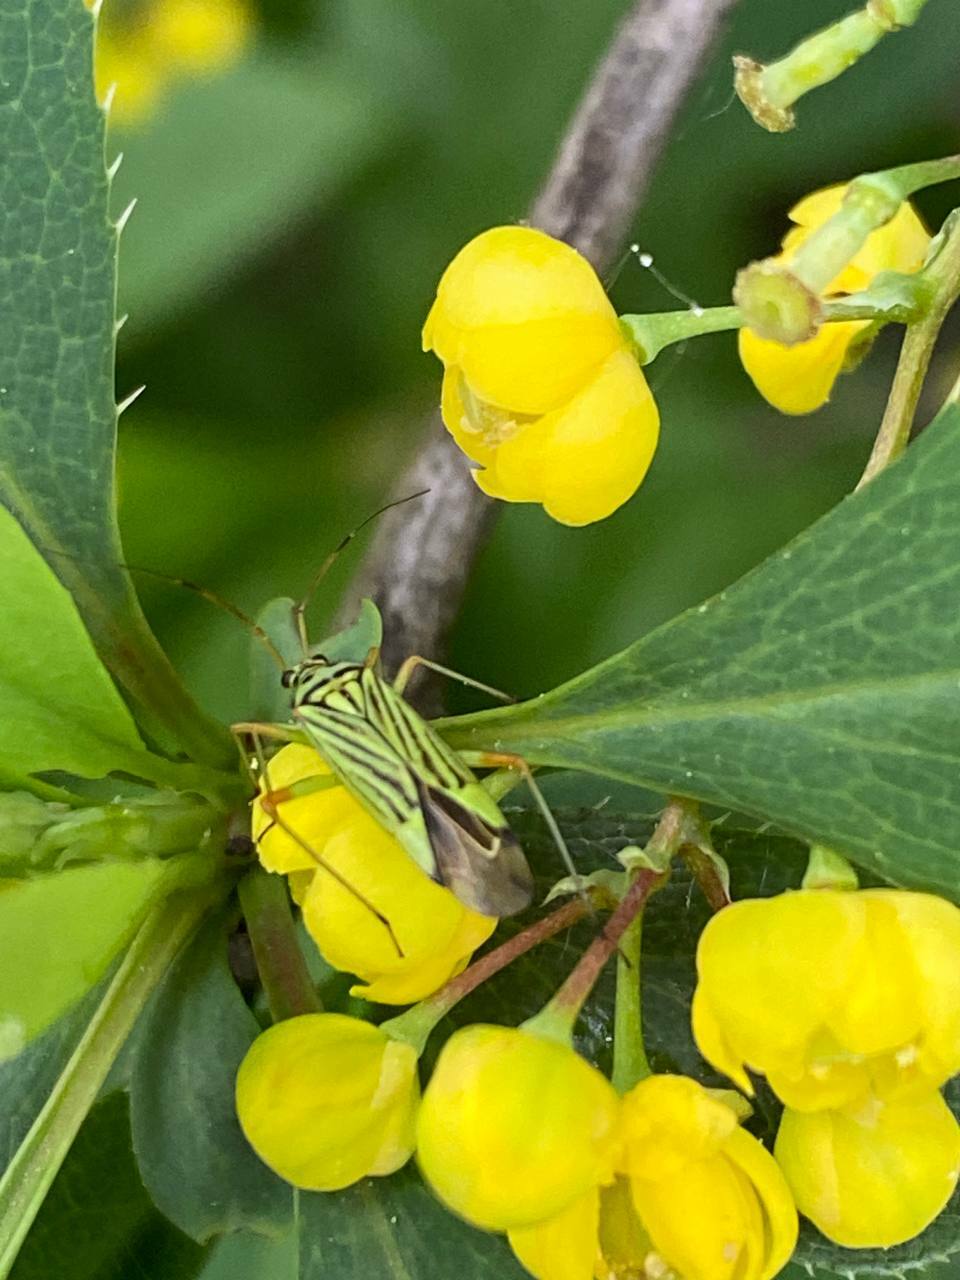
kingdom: Animalia
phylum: Arthropoda
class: Insecta
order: Hemiptera
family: Miridae
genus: Mermitelocerus
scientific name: Mermitelocerus schmidtii
